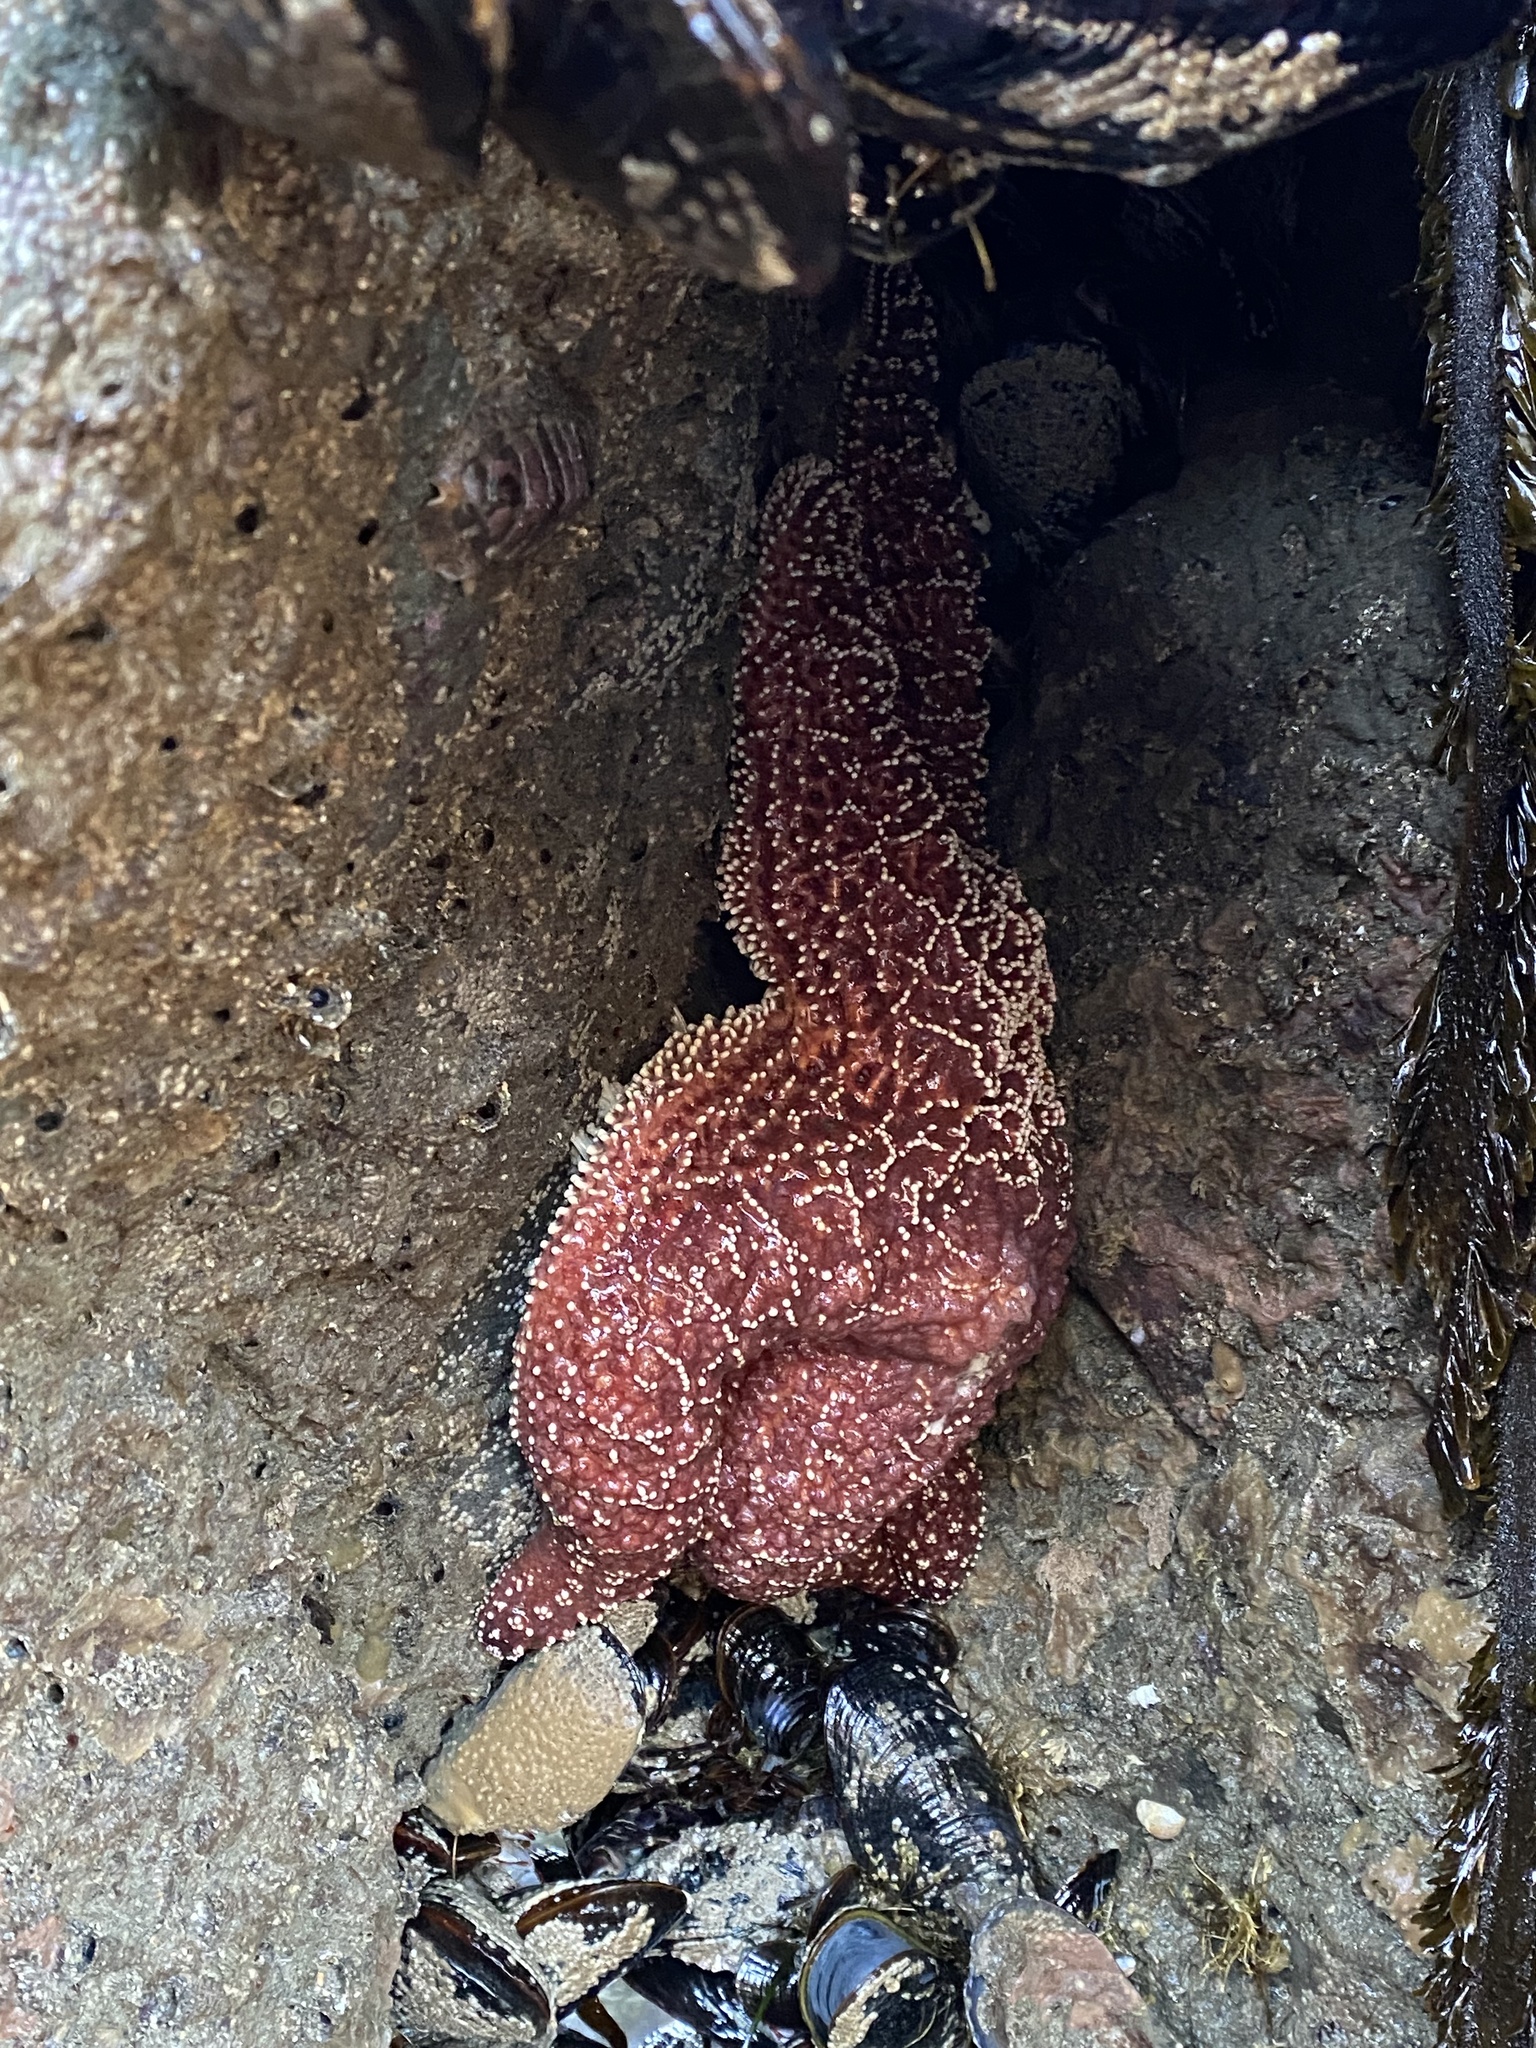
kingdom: Animalia
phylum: Echinodermata
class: Asteroidea
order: Forcipulatida
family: Asteriidae
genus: Pisaster
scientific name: Pisaster ochraceus
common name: Ochre stars
